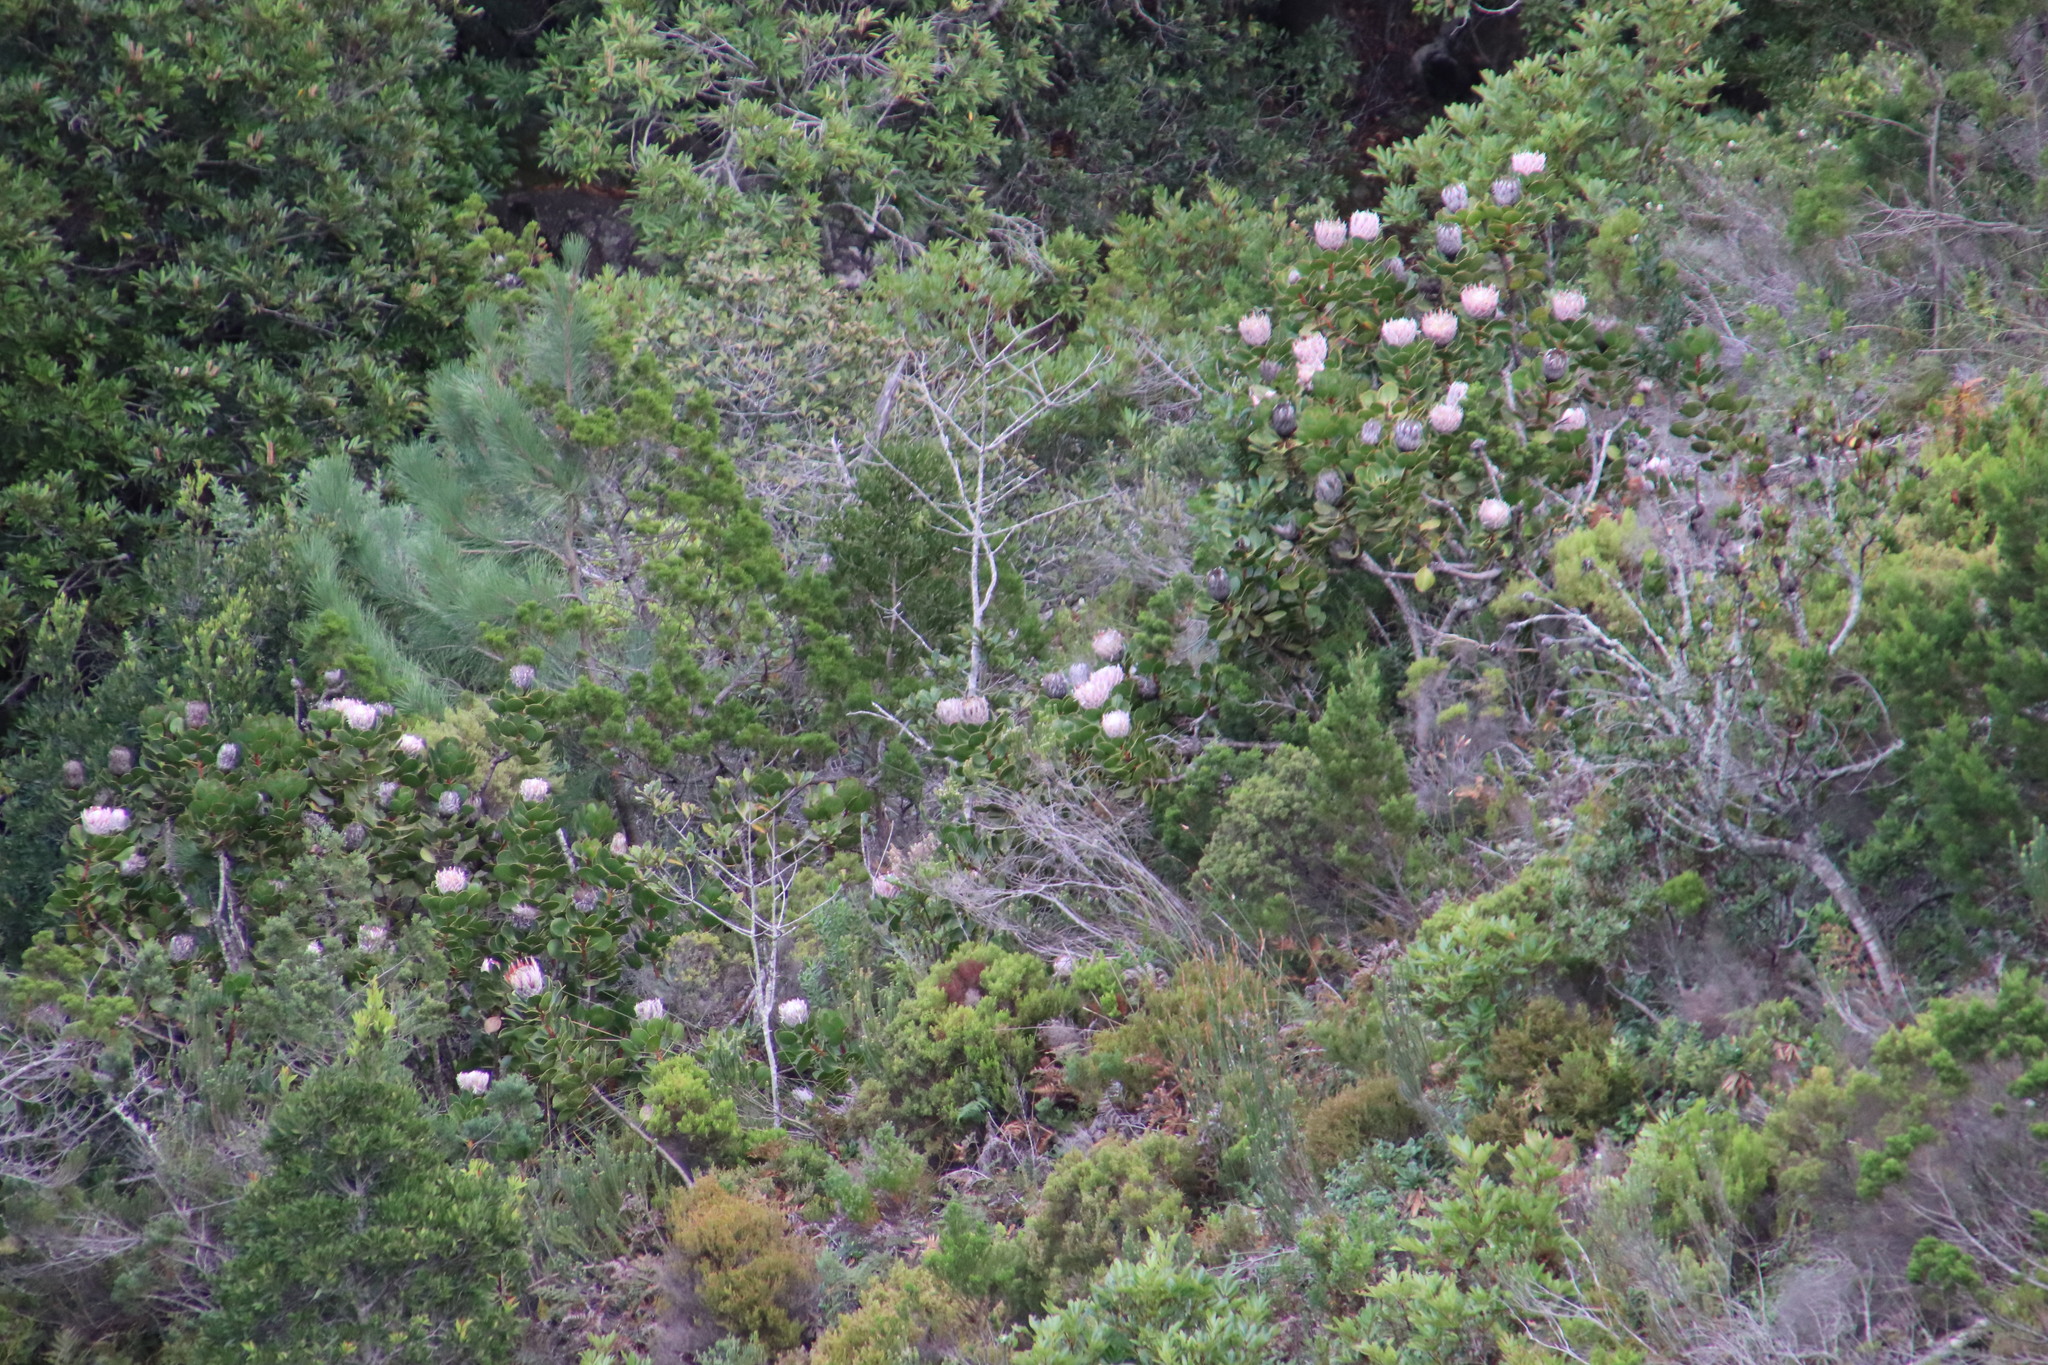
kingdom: Plantae
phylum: Tracheophyta
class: Magnoliopsida
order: Proteales
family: Proteaceae
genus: Protea
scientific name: Protea cynaroides
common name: King protea
